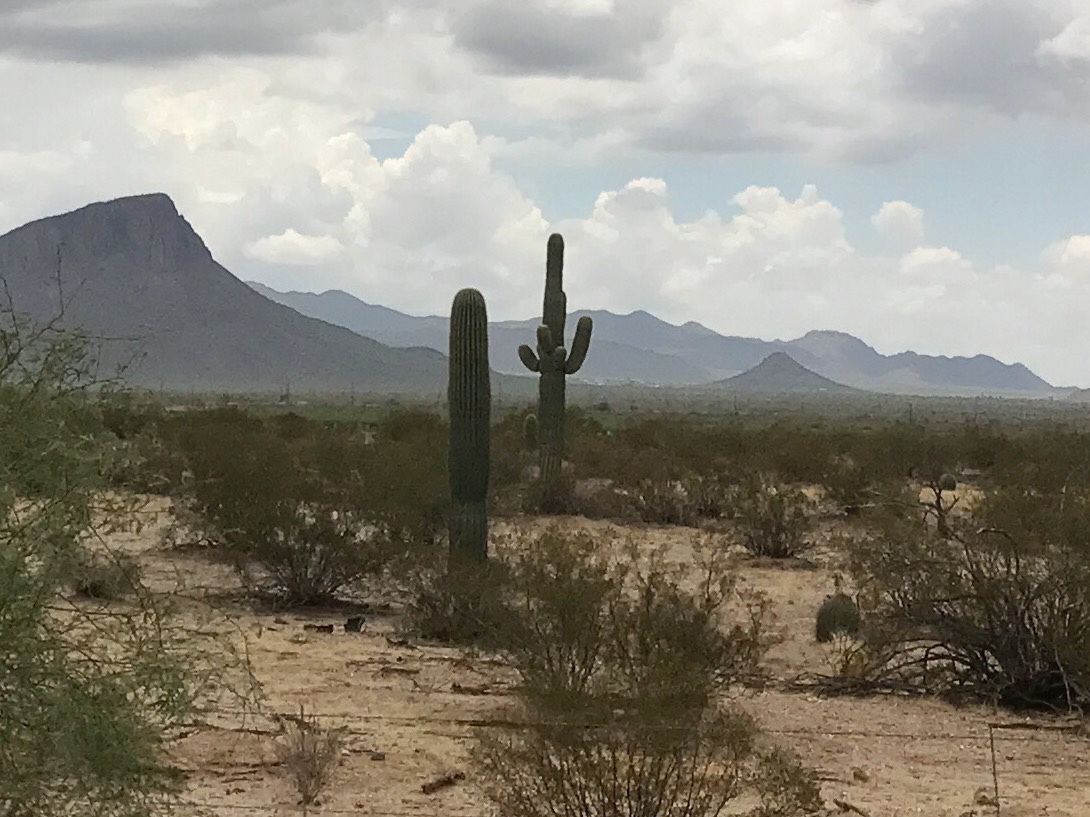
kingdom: Plantae
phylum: Tracheophyta
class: Magnoliopsida
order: Caryophyllales
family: Cactaceae
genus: Carnegiea
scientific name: Carnegiea gigantea
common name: Saguaro
